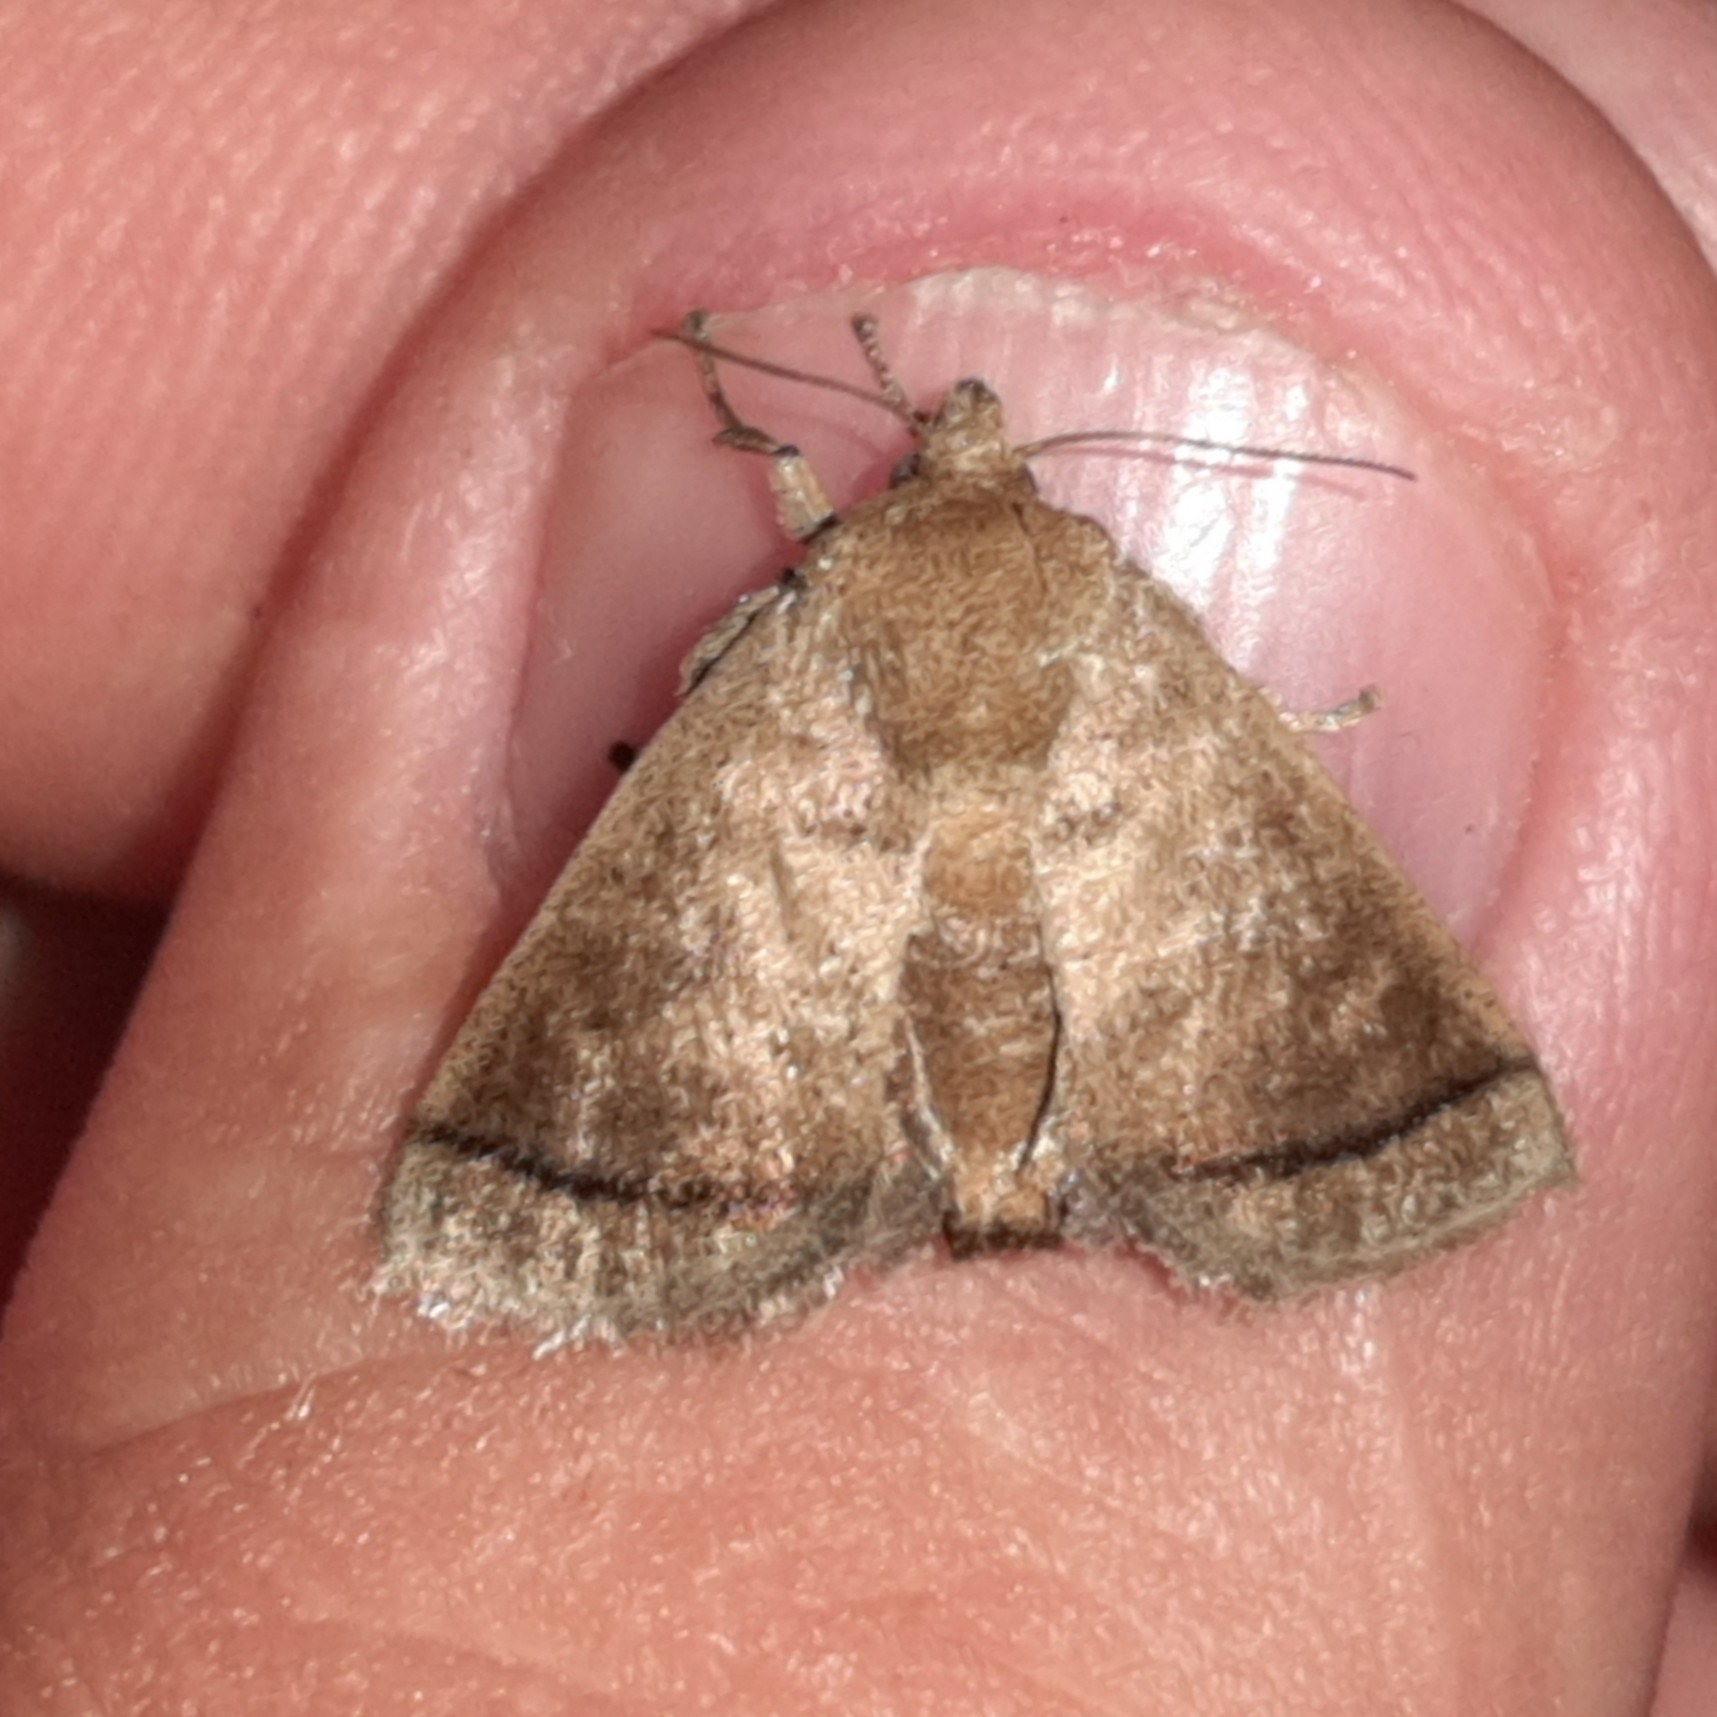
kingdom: Animalia
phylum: Arthropoda
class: Insecta
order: Lepidoptera
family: Limacodidae
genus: Natada
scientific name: Natada caria
